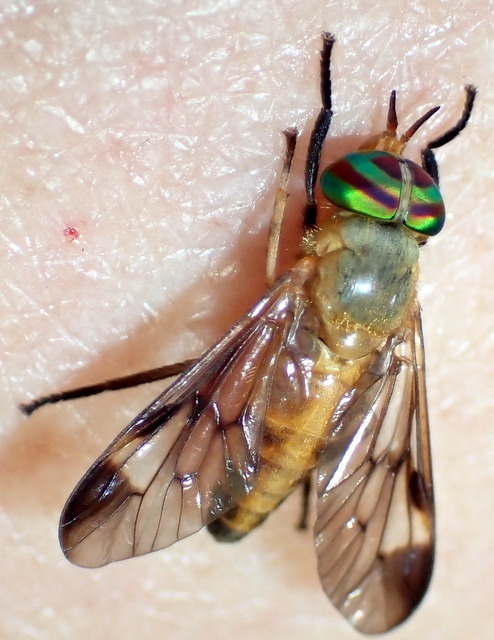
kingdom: Animalia
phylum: Arthropoda
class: Insecta
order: Diptera
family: Tabanidae
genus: Diachlorus
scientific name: Diachlorus ferrugatus
